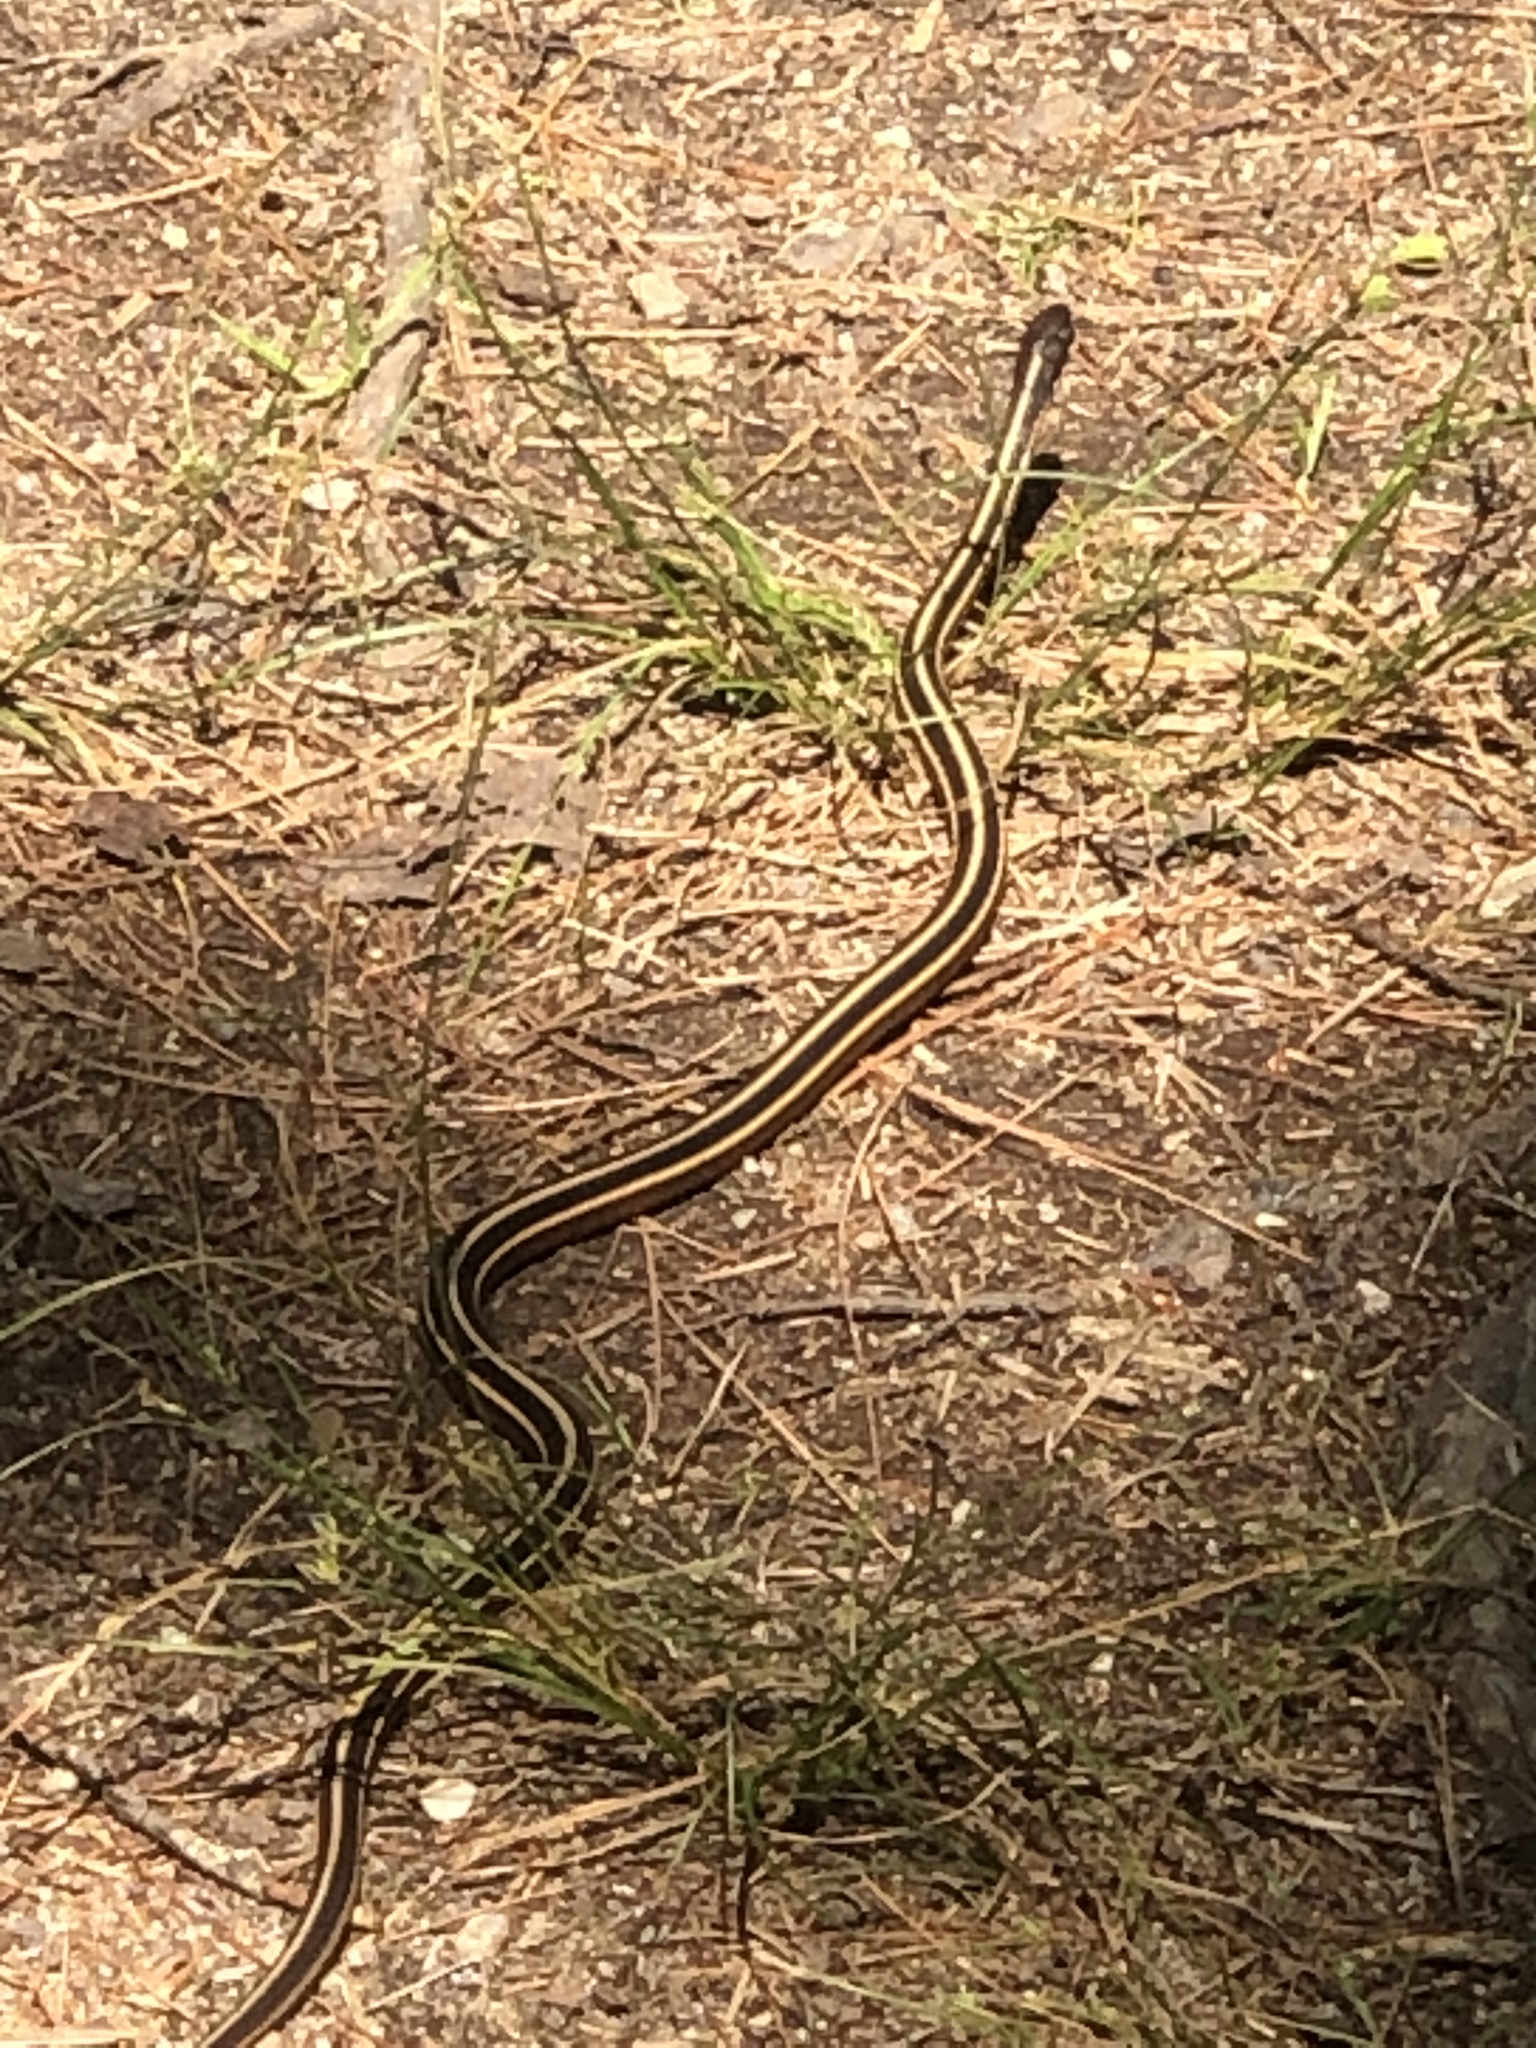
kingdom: Animalia
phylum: Chordata
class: Squamata
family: Colubridae
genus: Thamnophis
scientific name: Thamnophis saurita
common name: Eastern ribbonsnake
